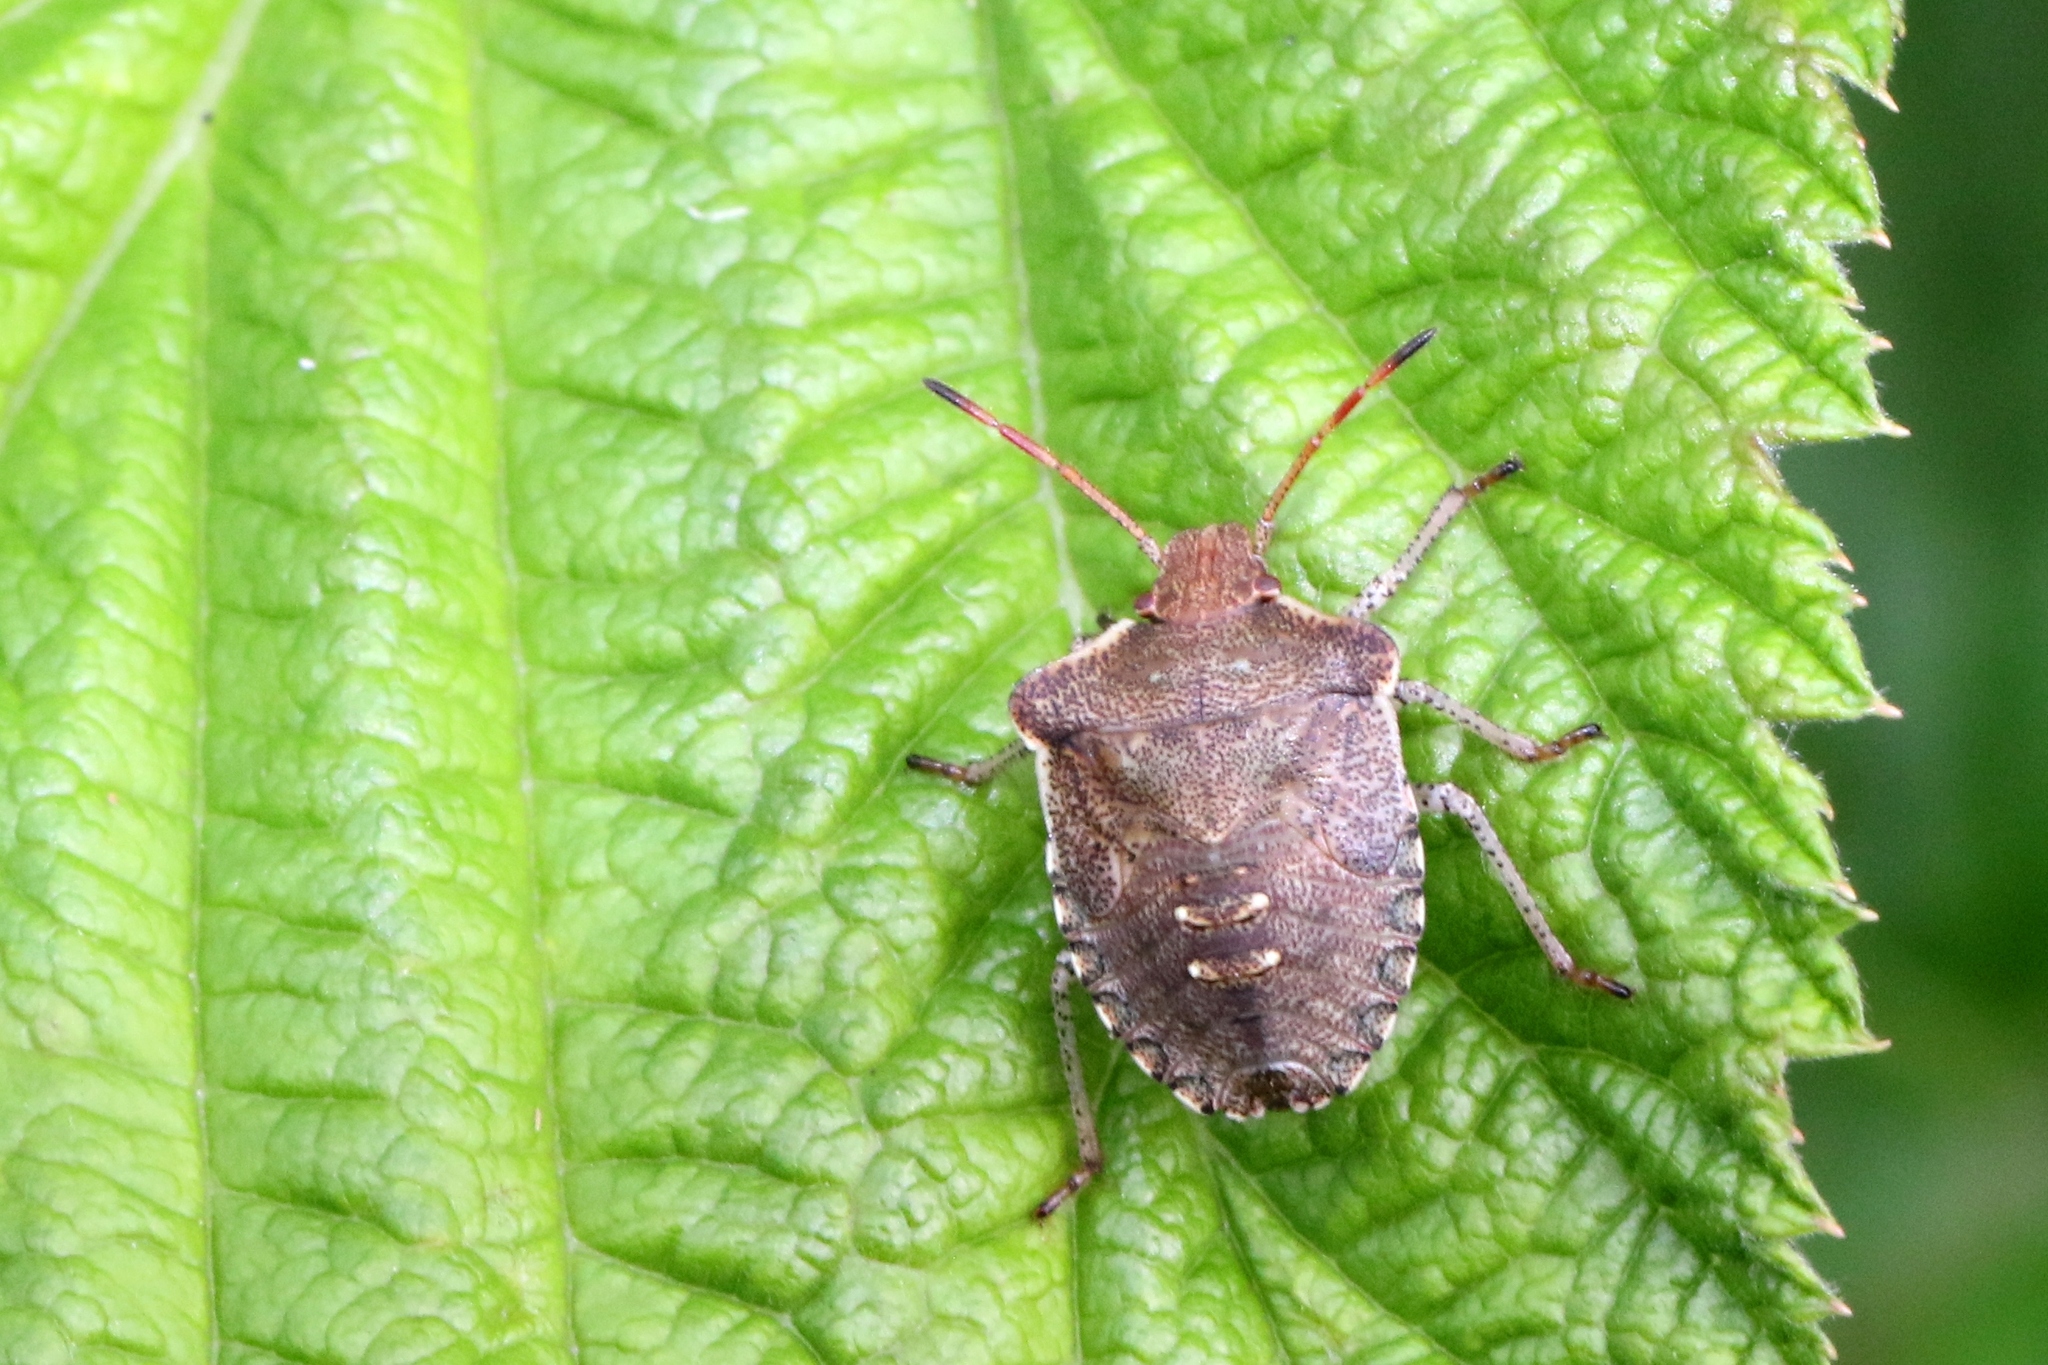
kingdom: Animalia
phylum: Arthropoda
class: Insecta
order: Hemiptera
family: Pentatomidae
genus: Euschistus
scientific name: Euschistus tristigmus
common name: Dusky stink bug
